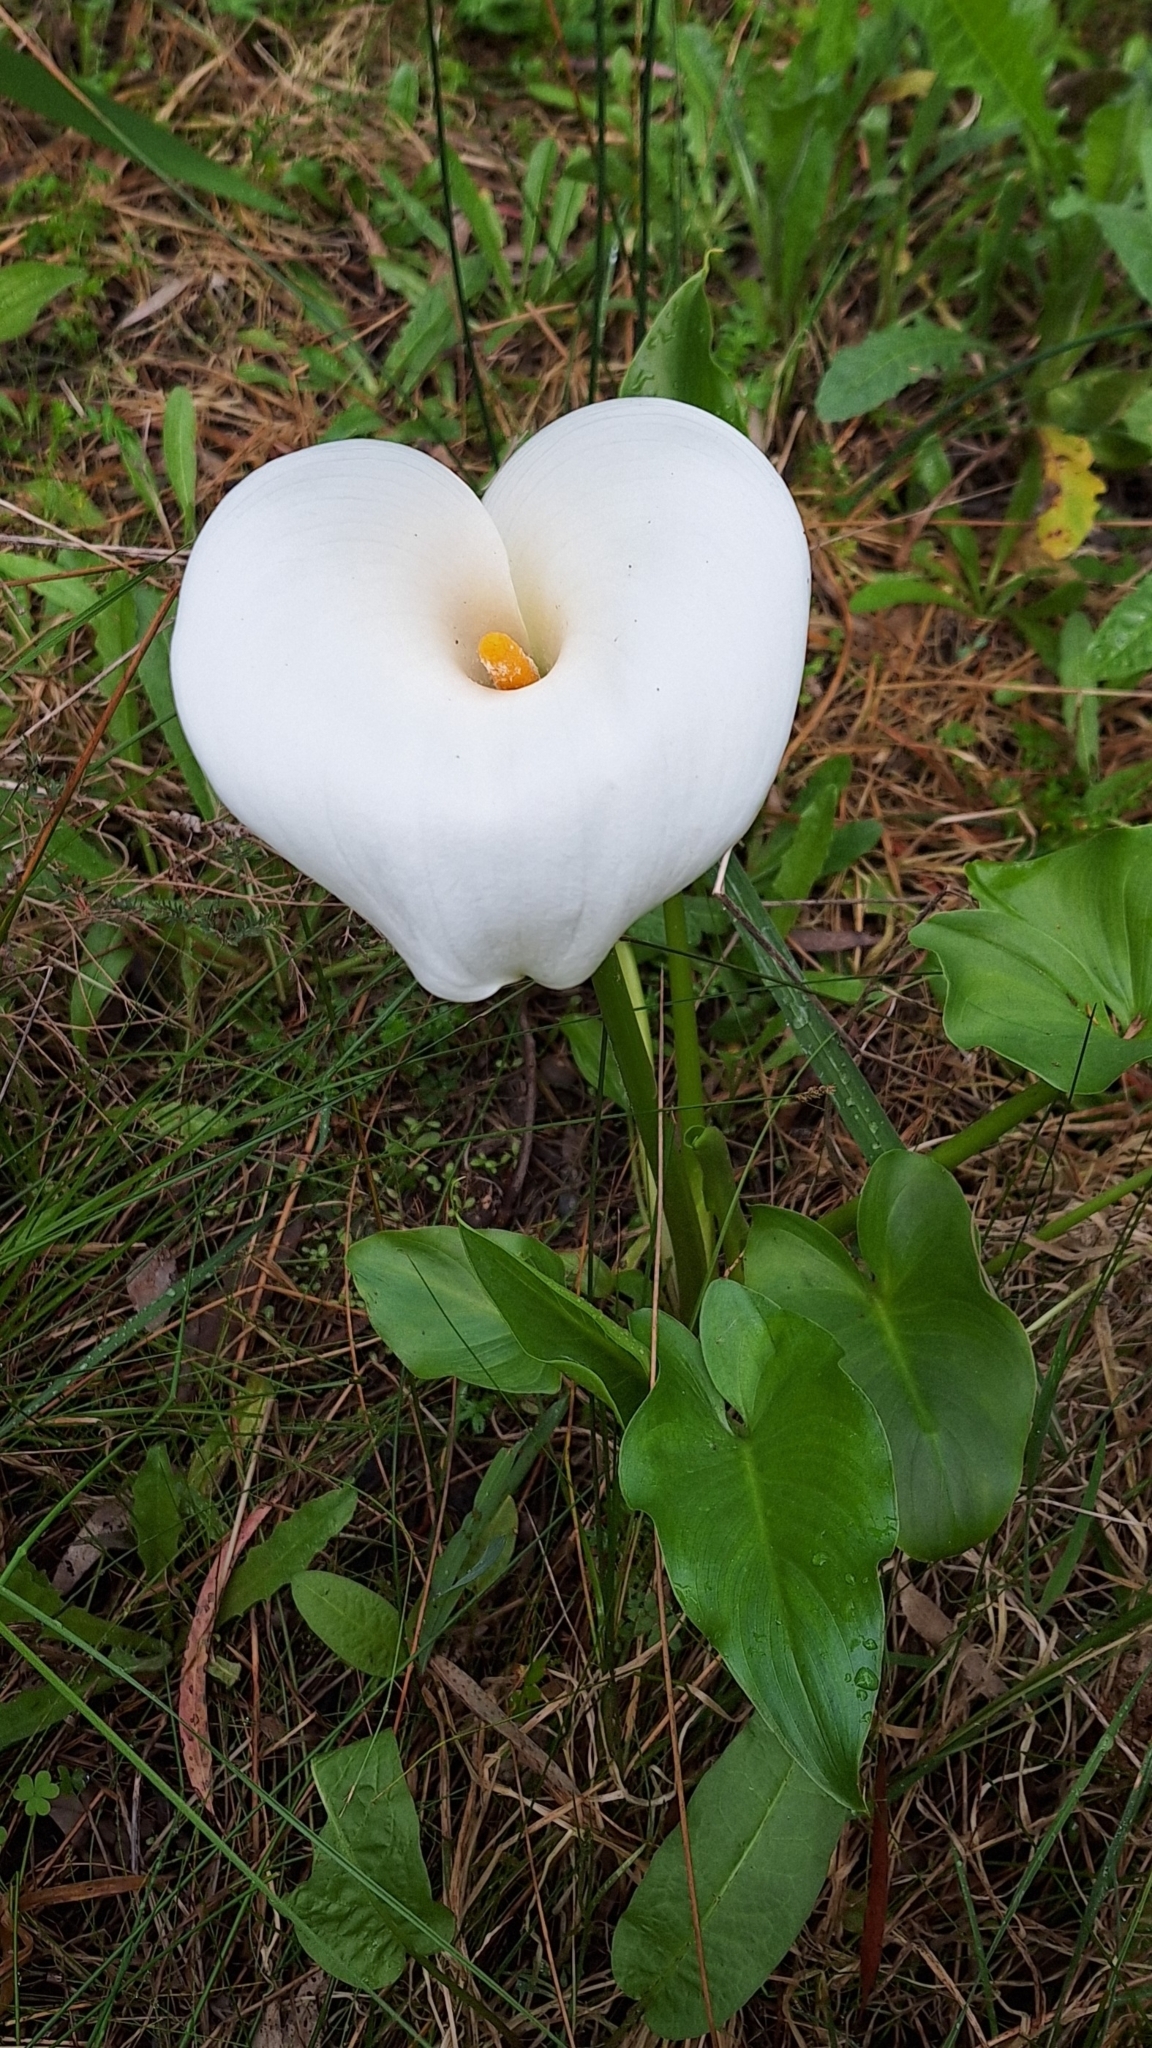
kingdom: Plantae
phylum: Tracheophyta
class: Liliopsida
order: Alismatales
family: Araceae
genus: Zantedeschia
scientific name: Zantedeschia aethiopica
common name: Altar-lily
